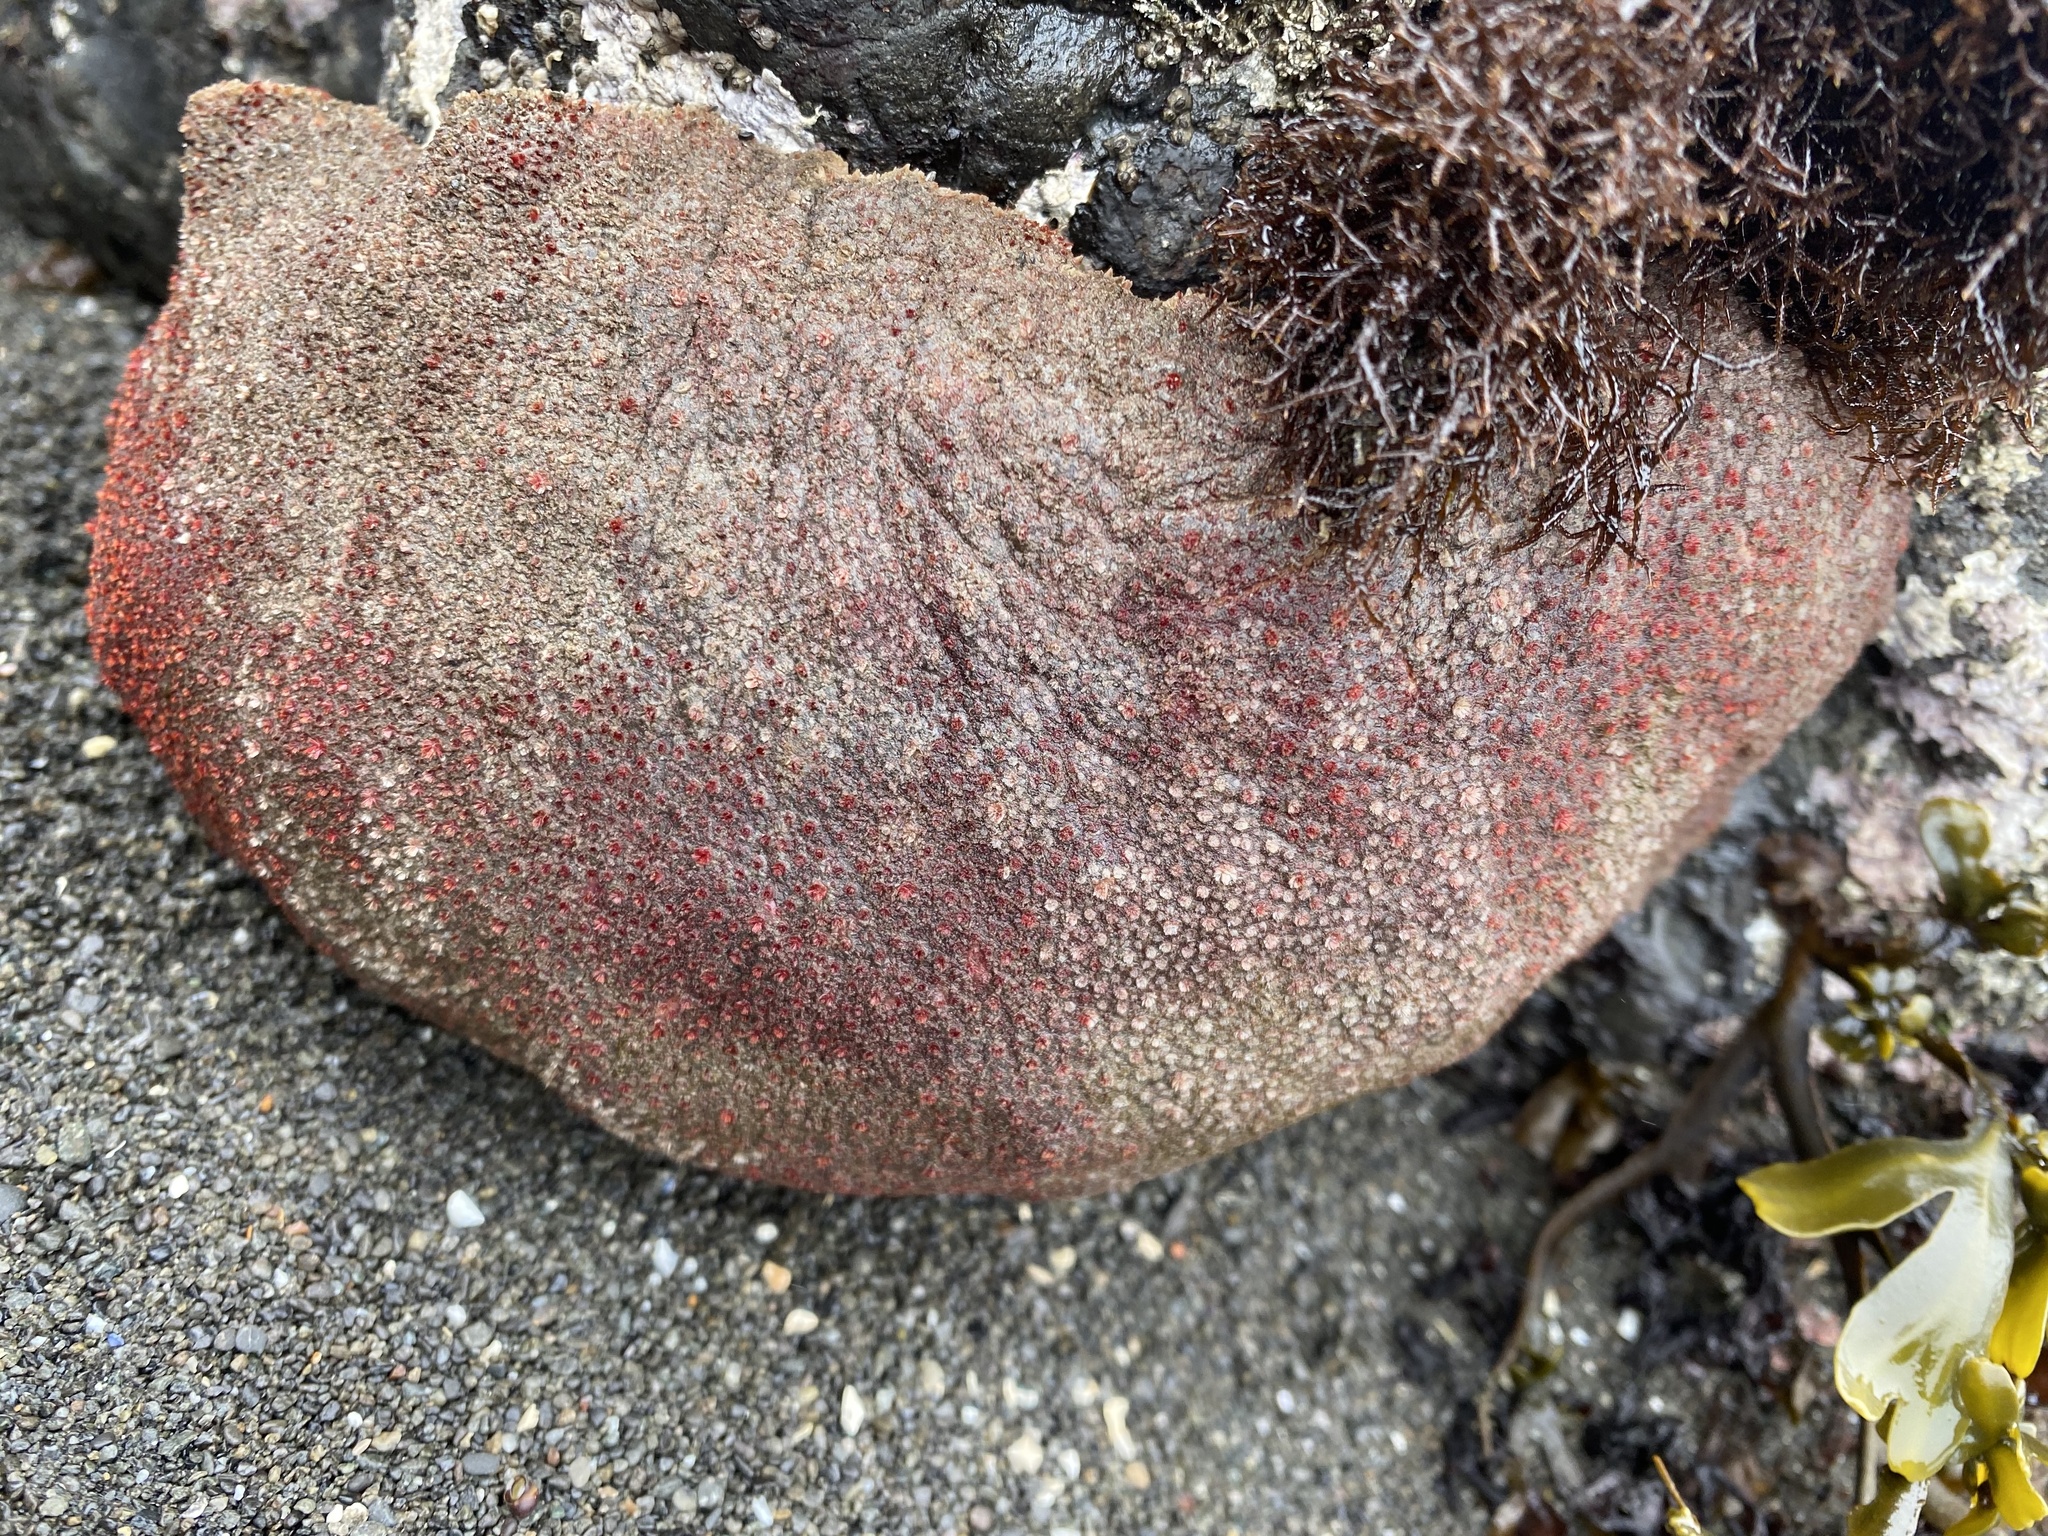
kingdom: Animalia
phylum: Mollusca
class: Polyplacophora
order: Chitonida
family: Acanthochitonidae
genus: Cryptochiton
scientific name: Cryptochiton stelleri
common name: Giant pacific chiton
